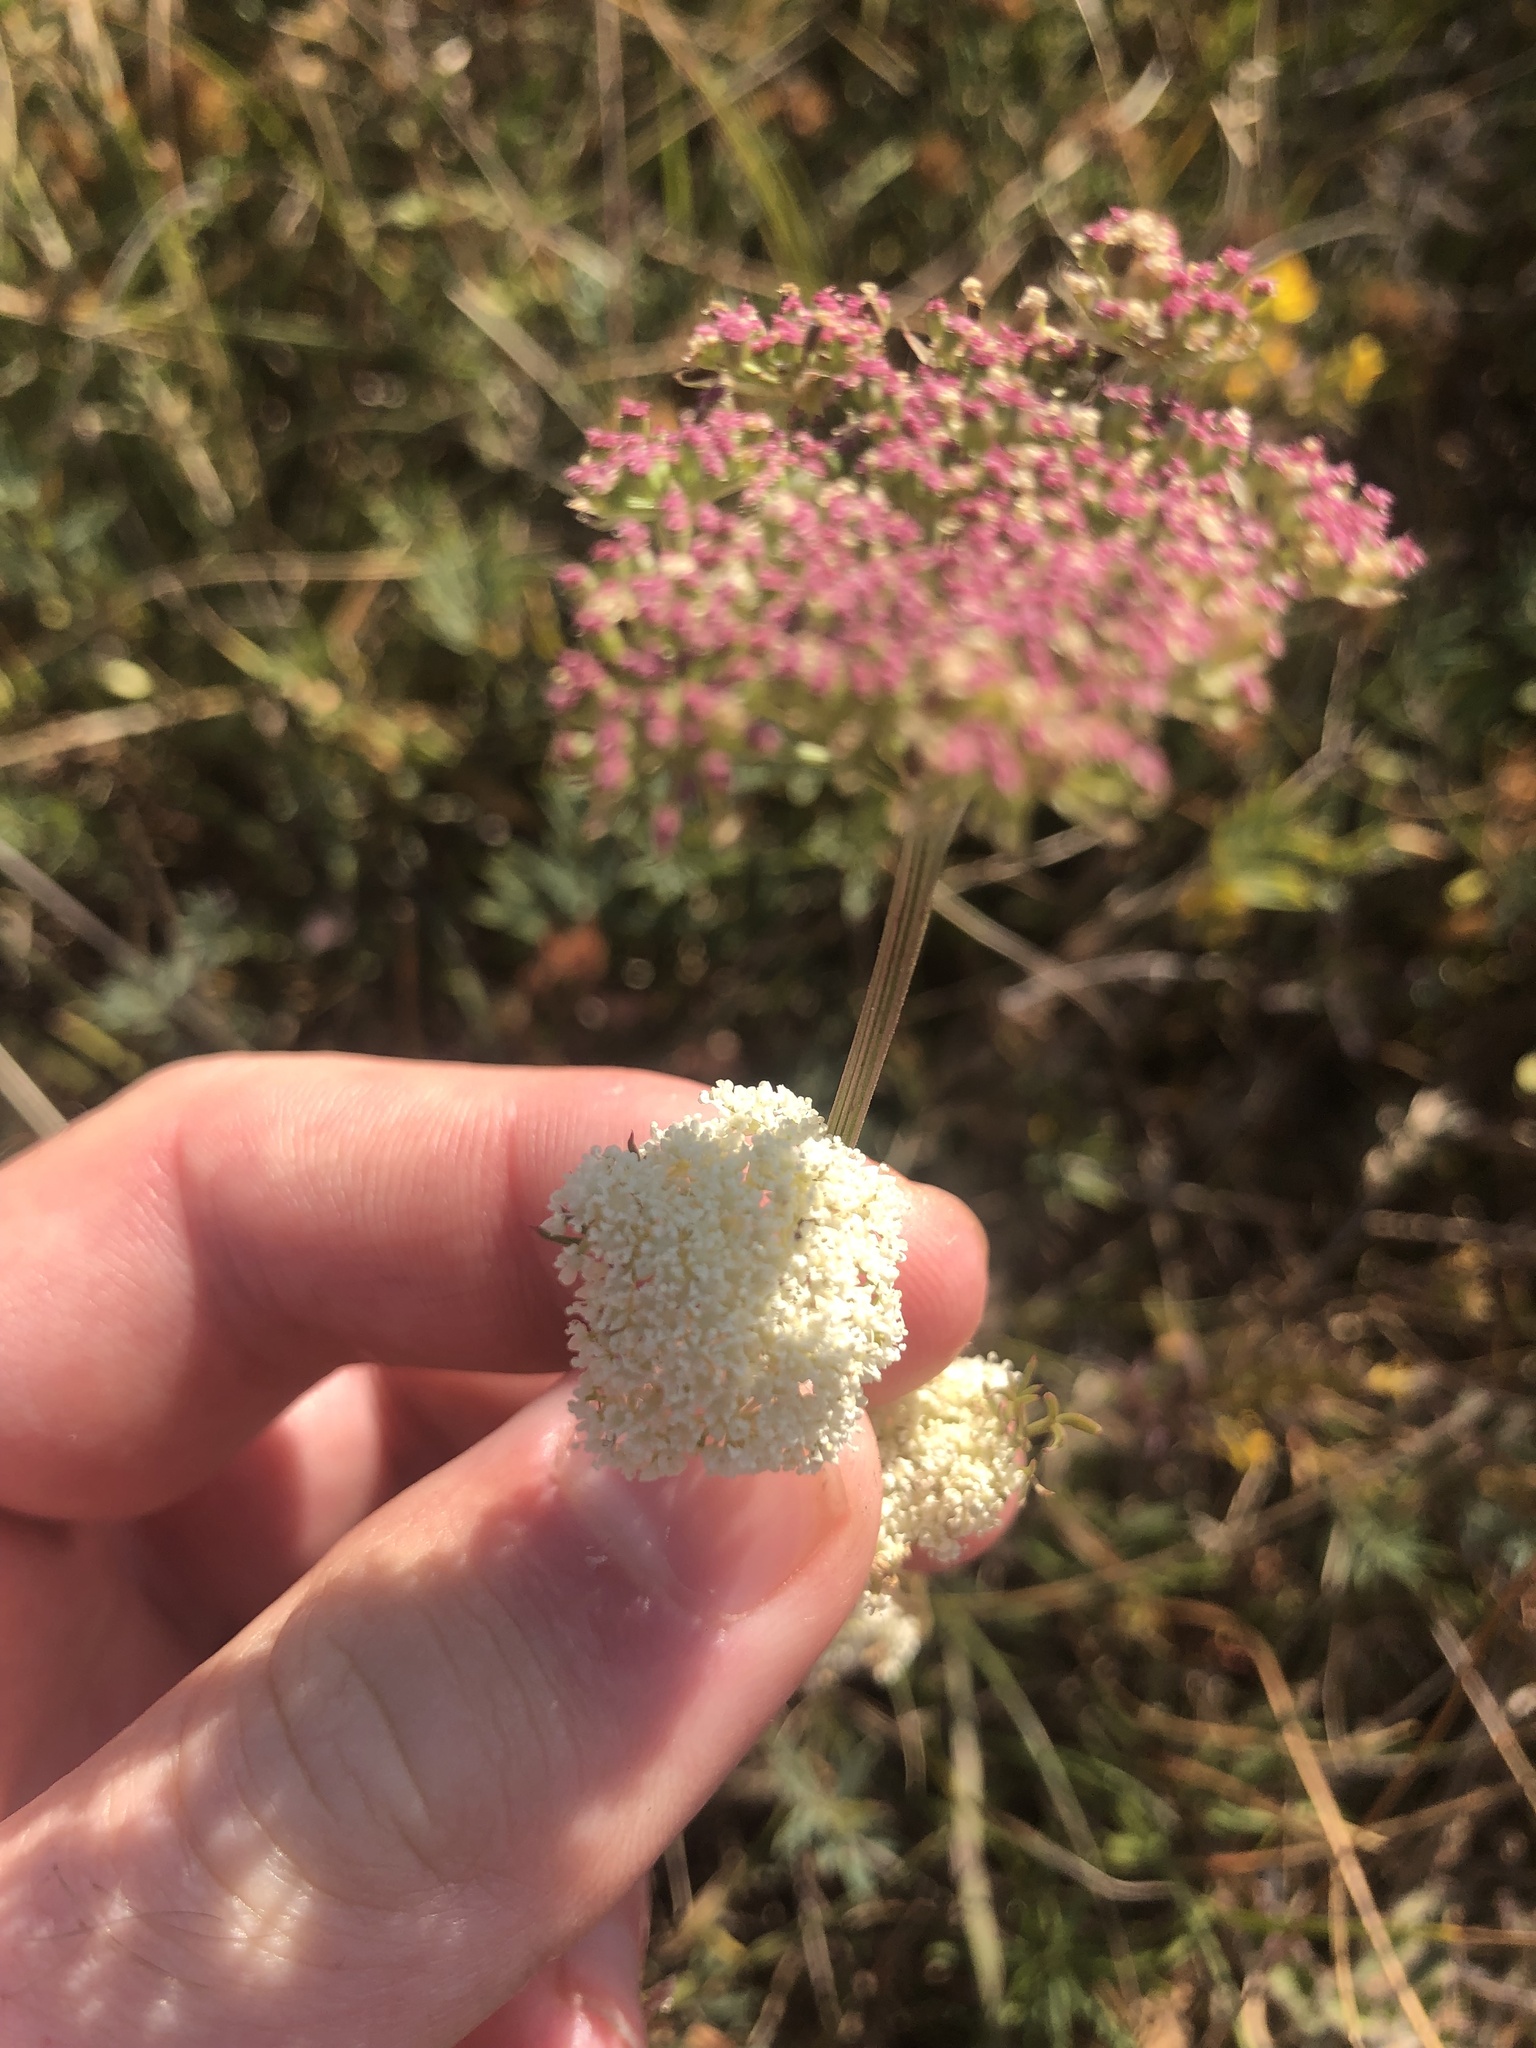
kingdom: Plantae
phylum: Tracheophyta
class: Magnoliopsida
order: Apiales
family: Apiaceae
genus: Seseli
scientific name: Seseli annuum
